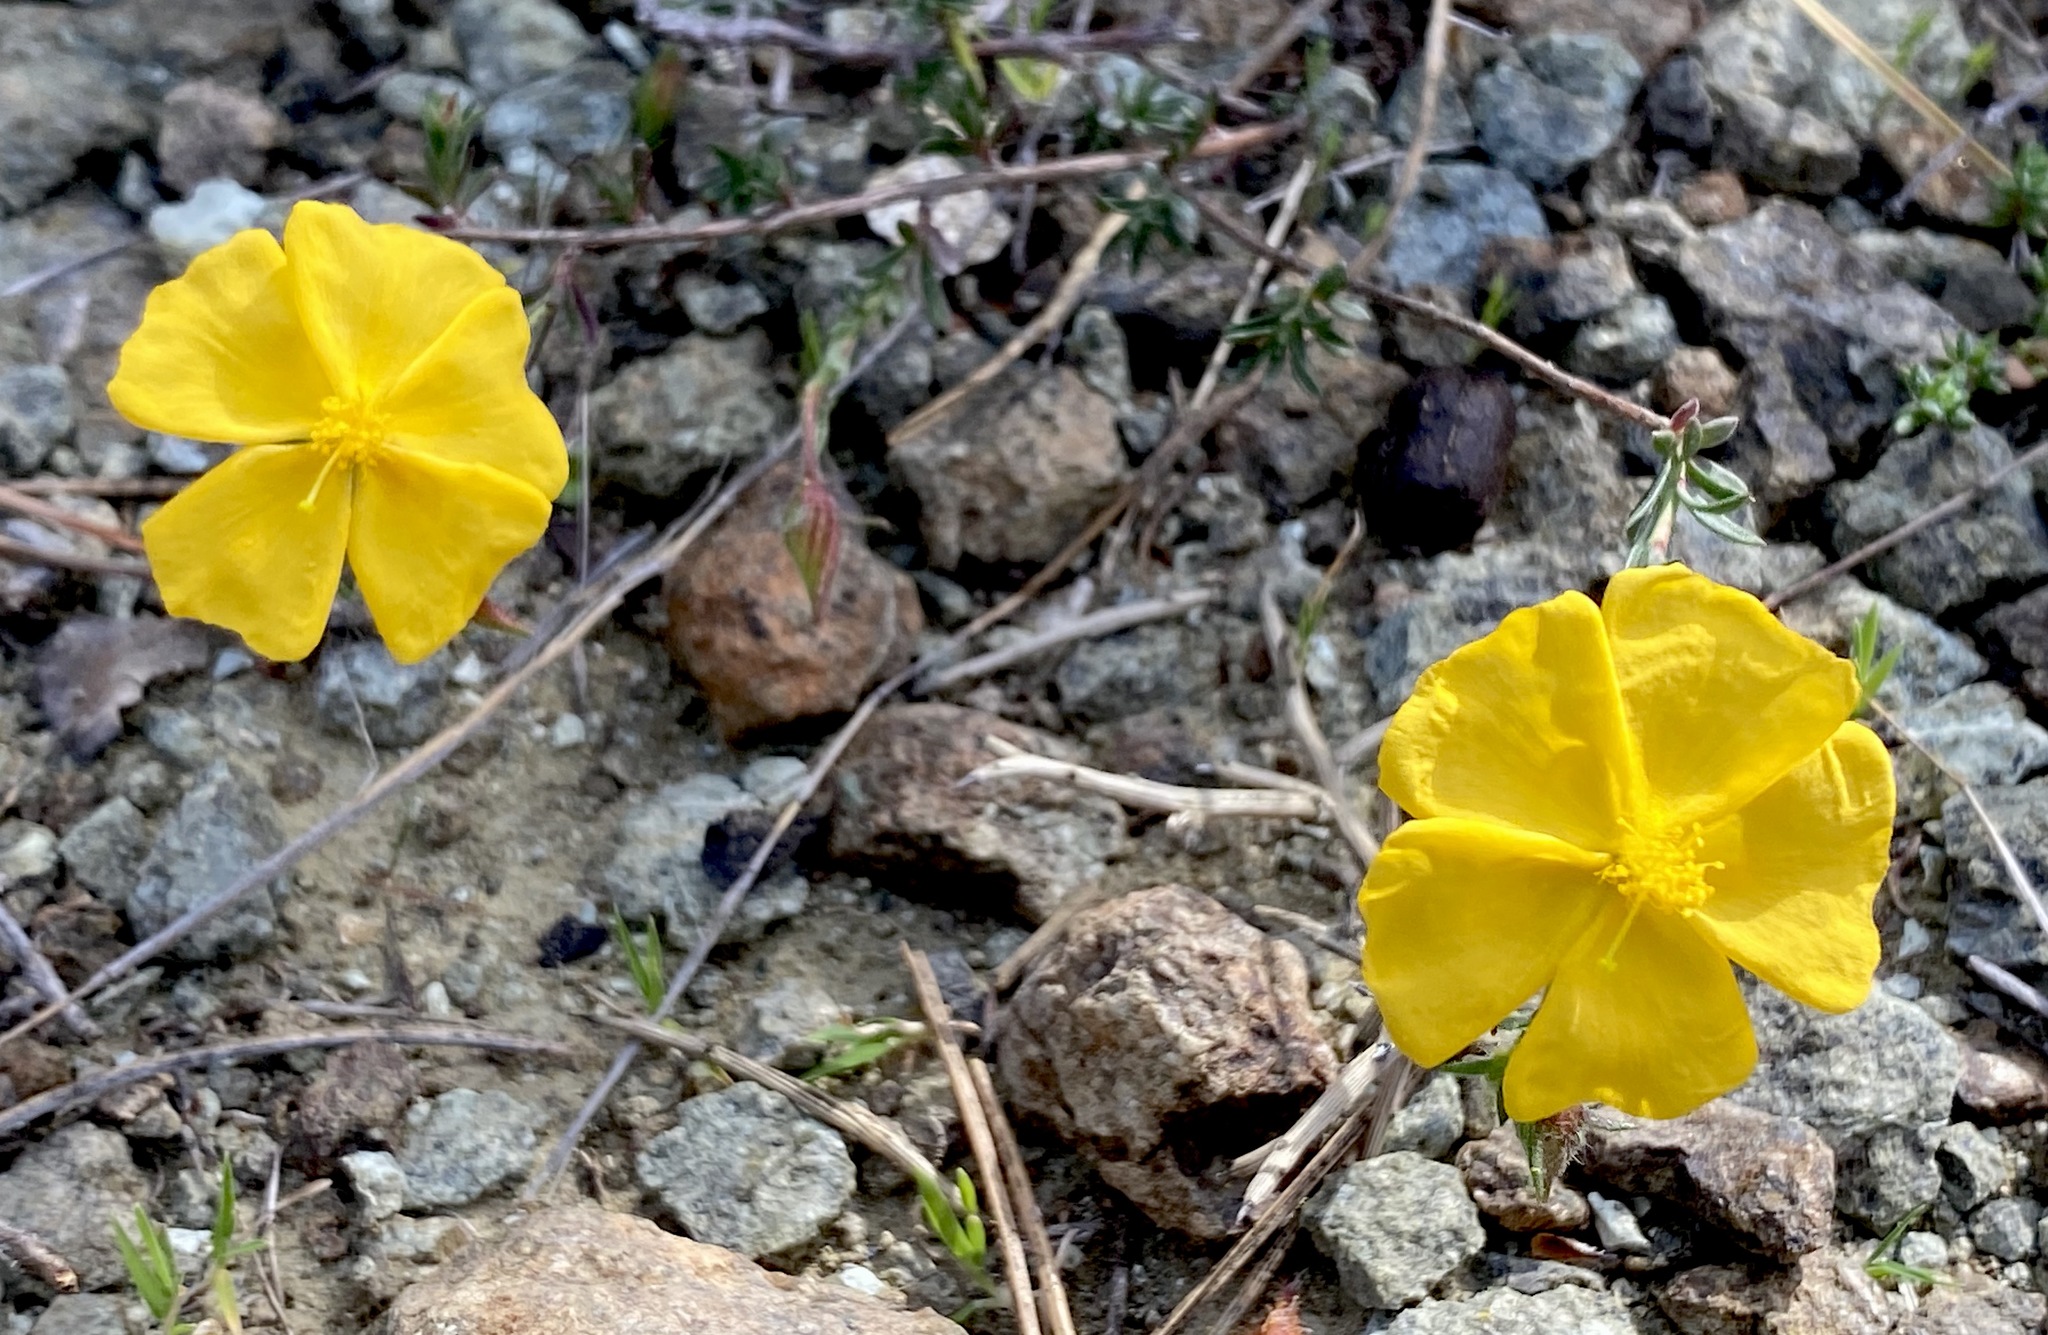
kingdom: Plantae
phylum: Tracheophyta
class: Magnoliopsida
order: Malvales
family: Cistaceae
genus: Fumana
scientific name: Fumana arabica
